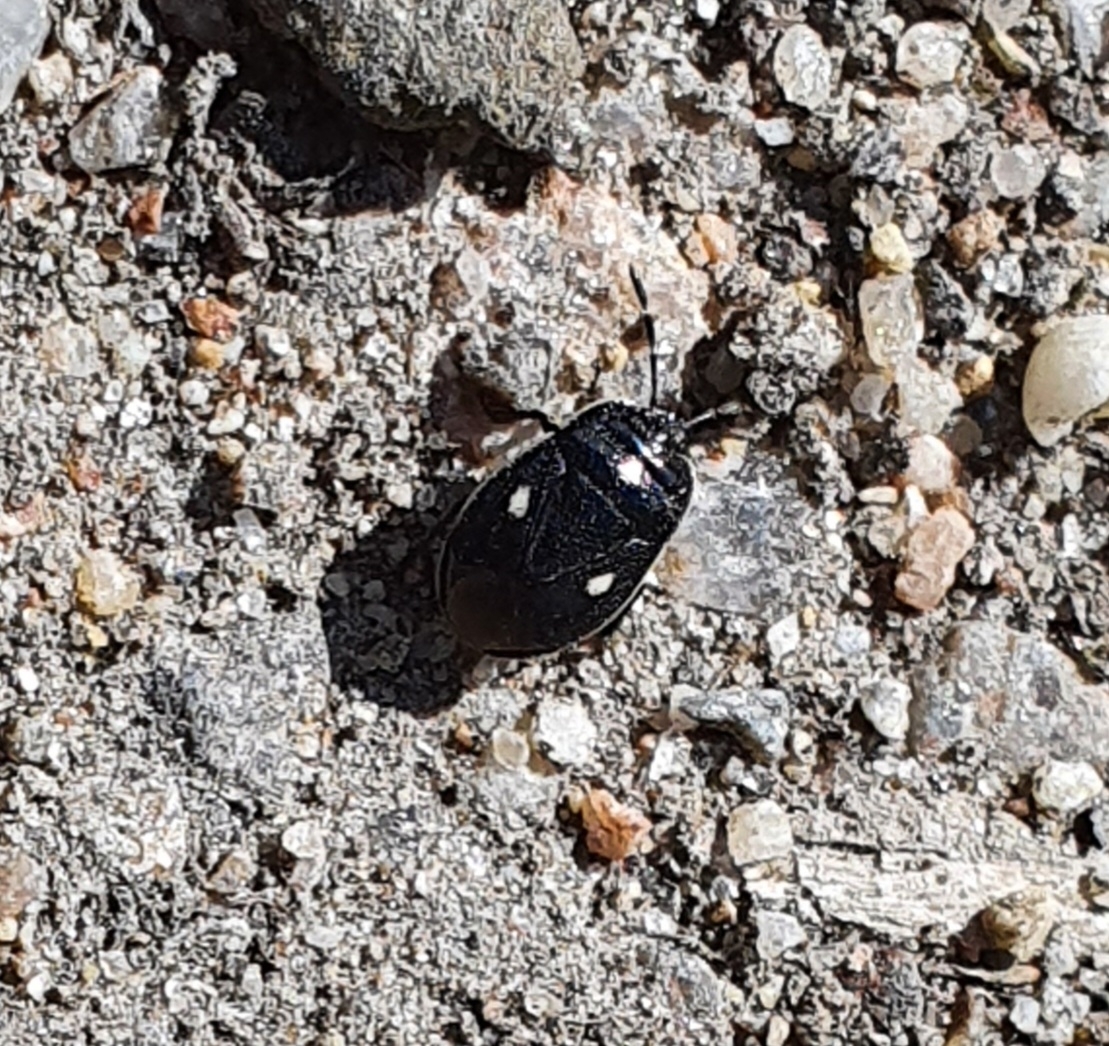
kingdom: Animalia
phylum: Arthropoda
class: Insecta
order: Hemiptera
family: Cydnidae
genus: Adomerus
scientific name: Adomerus biguttatus
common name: Cow wheat shieldbug
